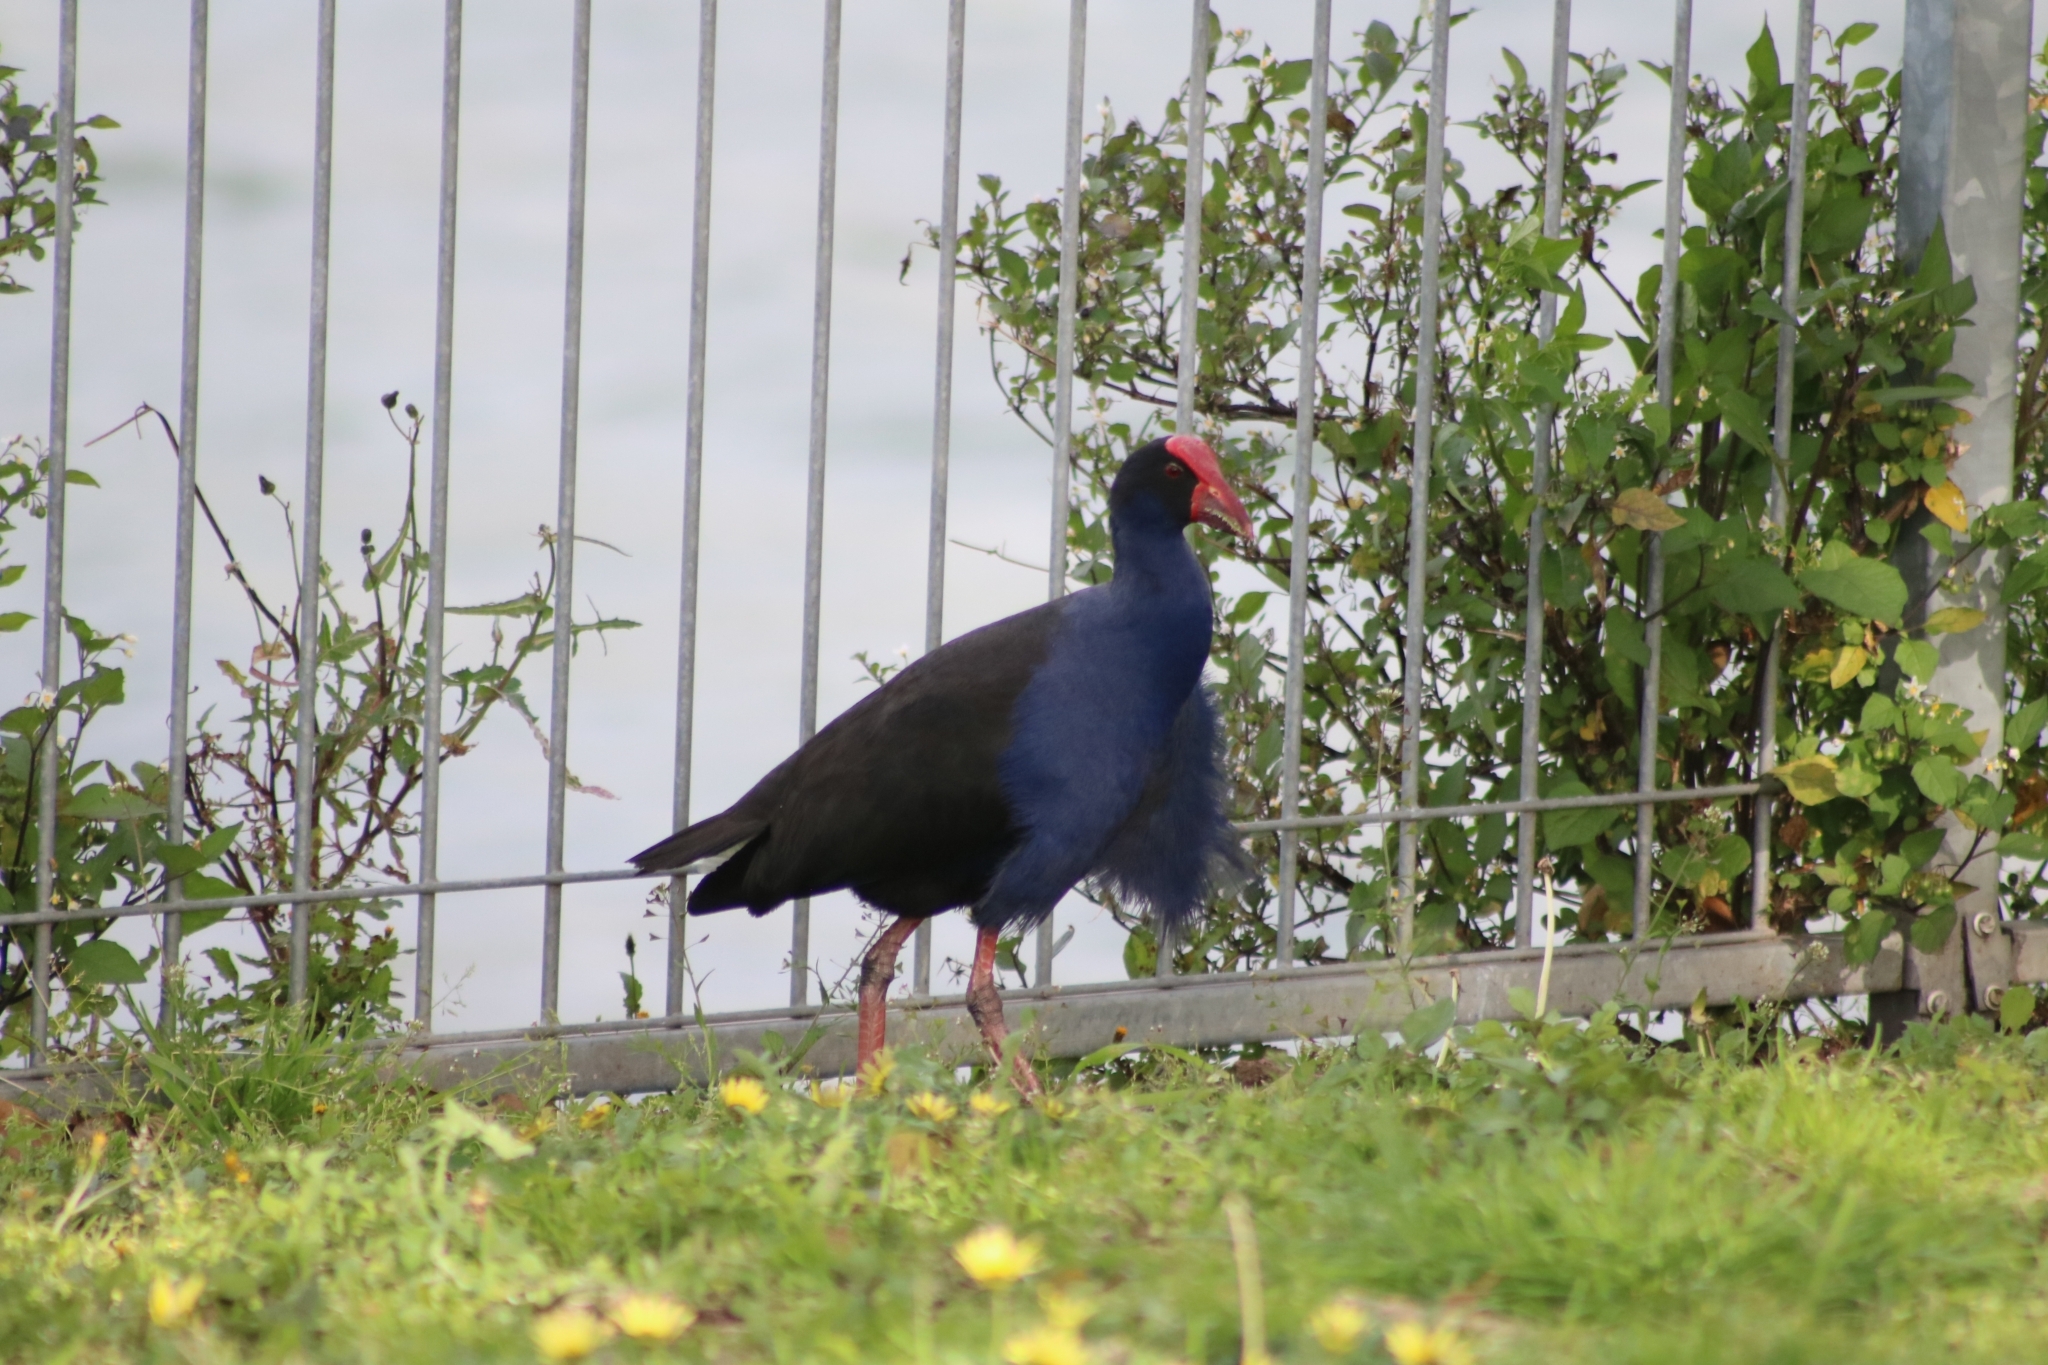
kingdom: Animalia
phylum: Chordata
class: Aves
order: Gruiformes
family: Rallidae
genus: Porphyrio
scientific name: Porphyrio melanotus
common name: Australasian swamphen
